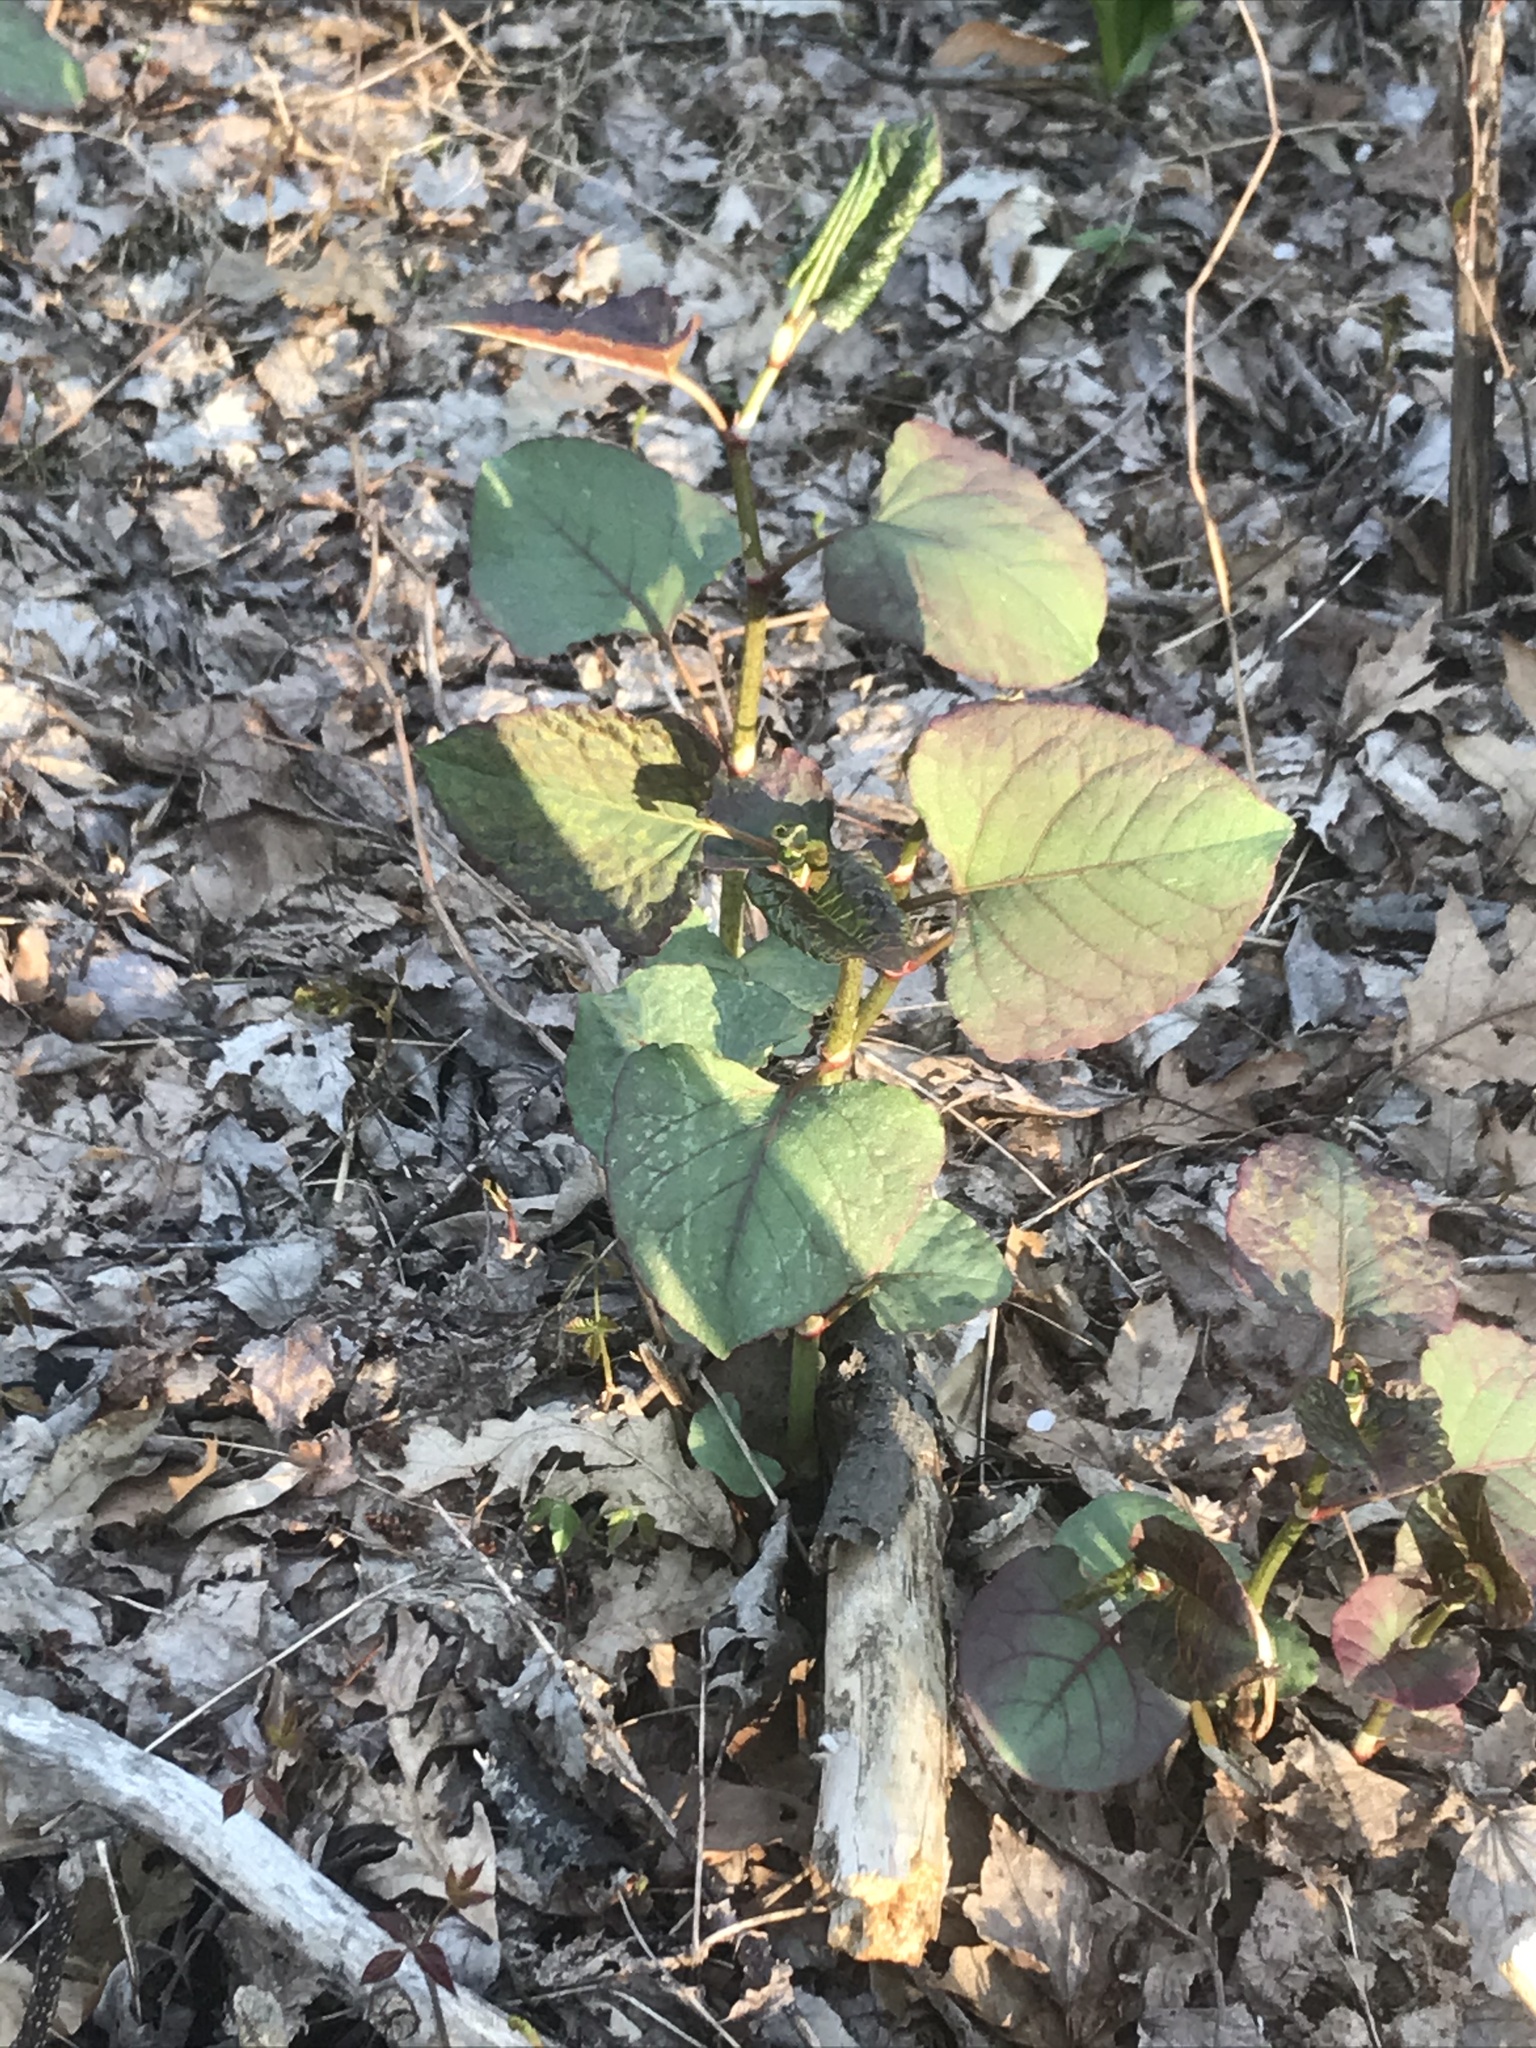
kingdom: Plantae
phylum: Tracheophyta
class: Magnoliopsida
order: Caryophyllales
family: Polygonaceae
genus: Reynoutria
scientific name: Reynoutria bohemica
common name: Bohemian knotweed
